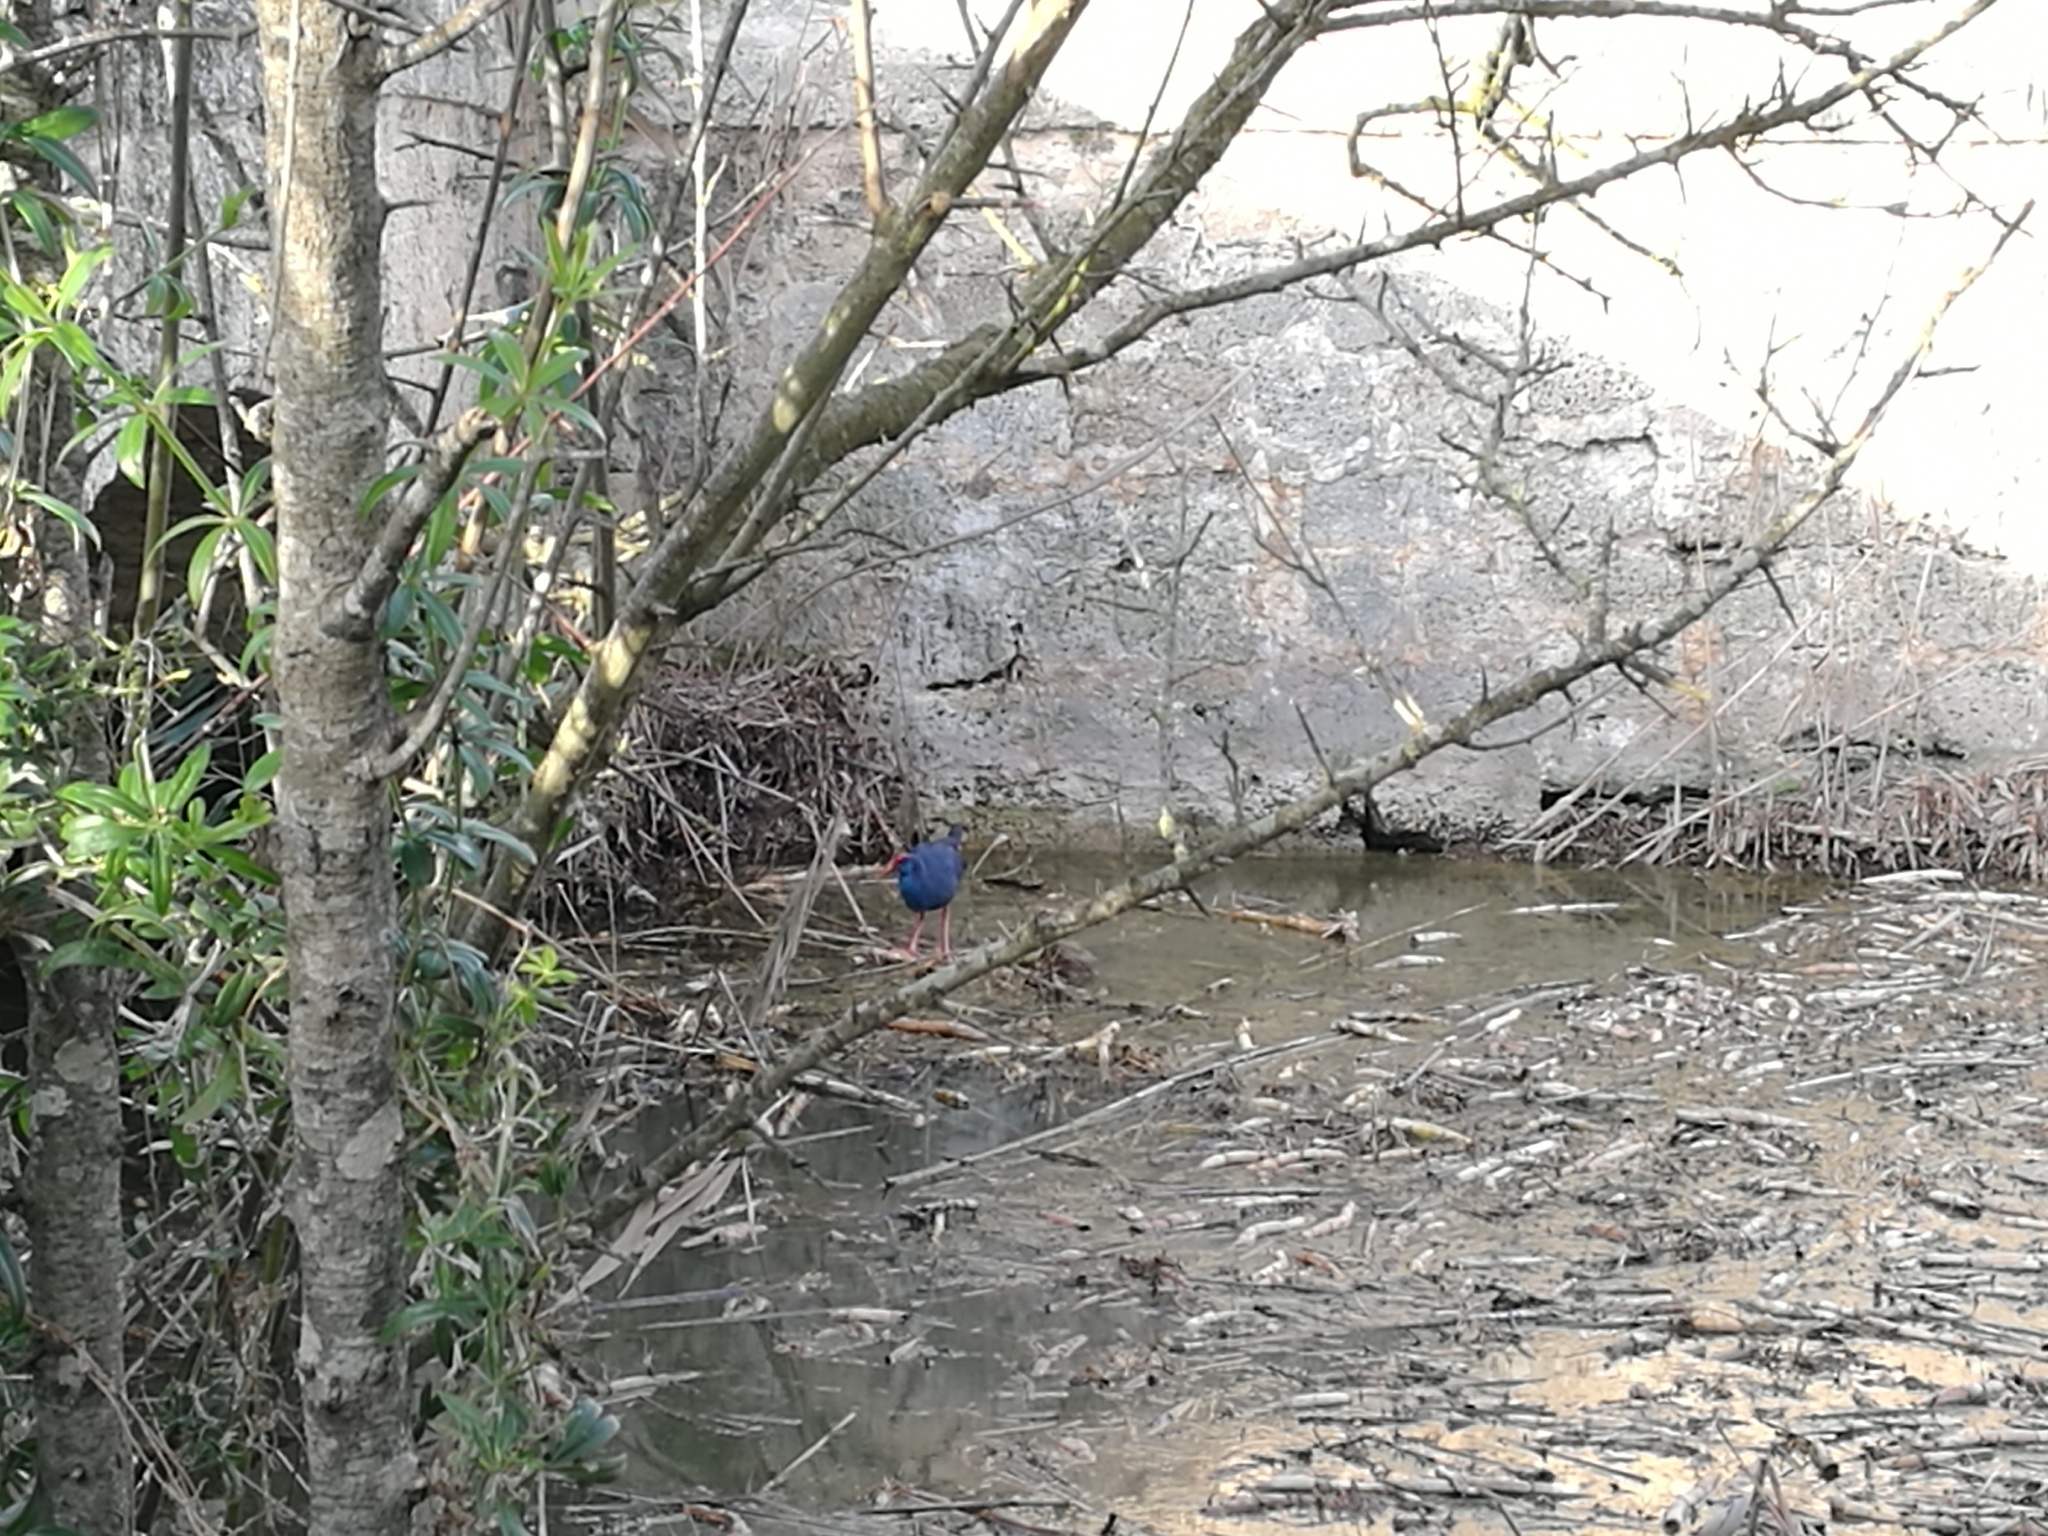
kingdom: Animalia
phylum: Chordata
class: Aves
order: Gruiformes
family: Rallidae
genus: Porphyrio
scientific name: Porphyrio porphyrio
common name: Purple swamphen
